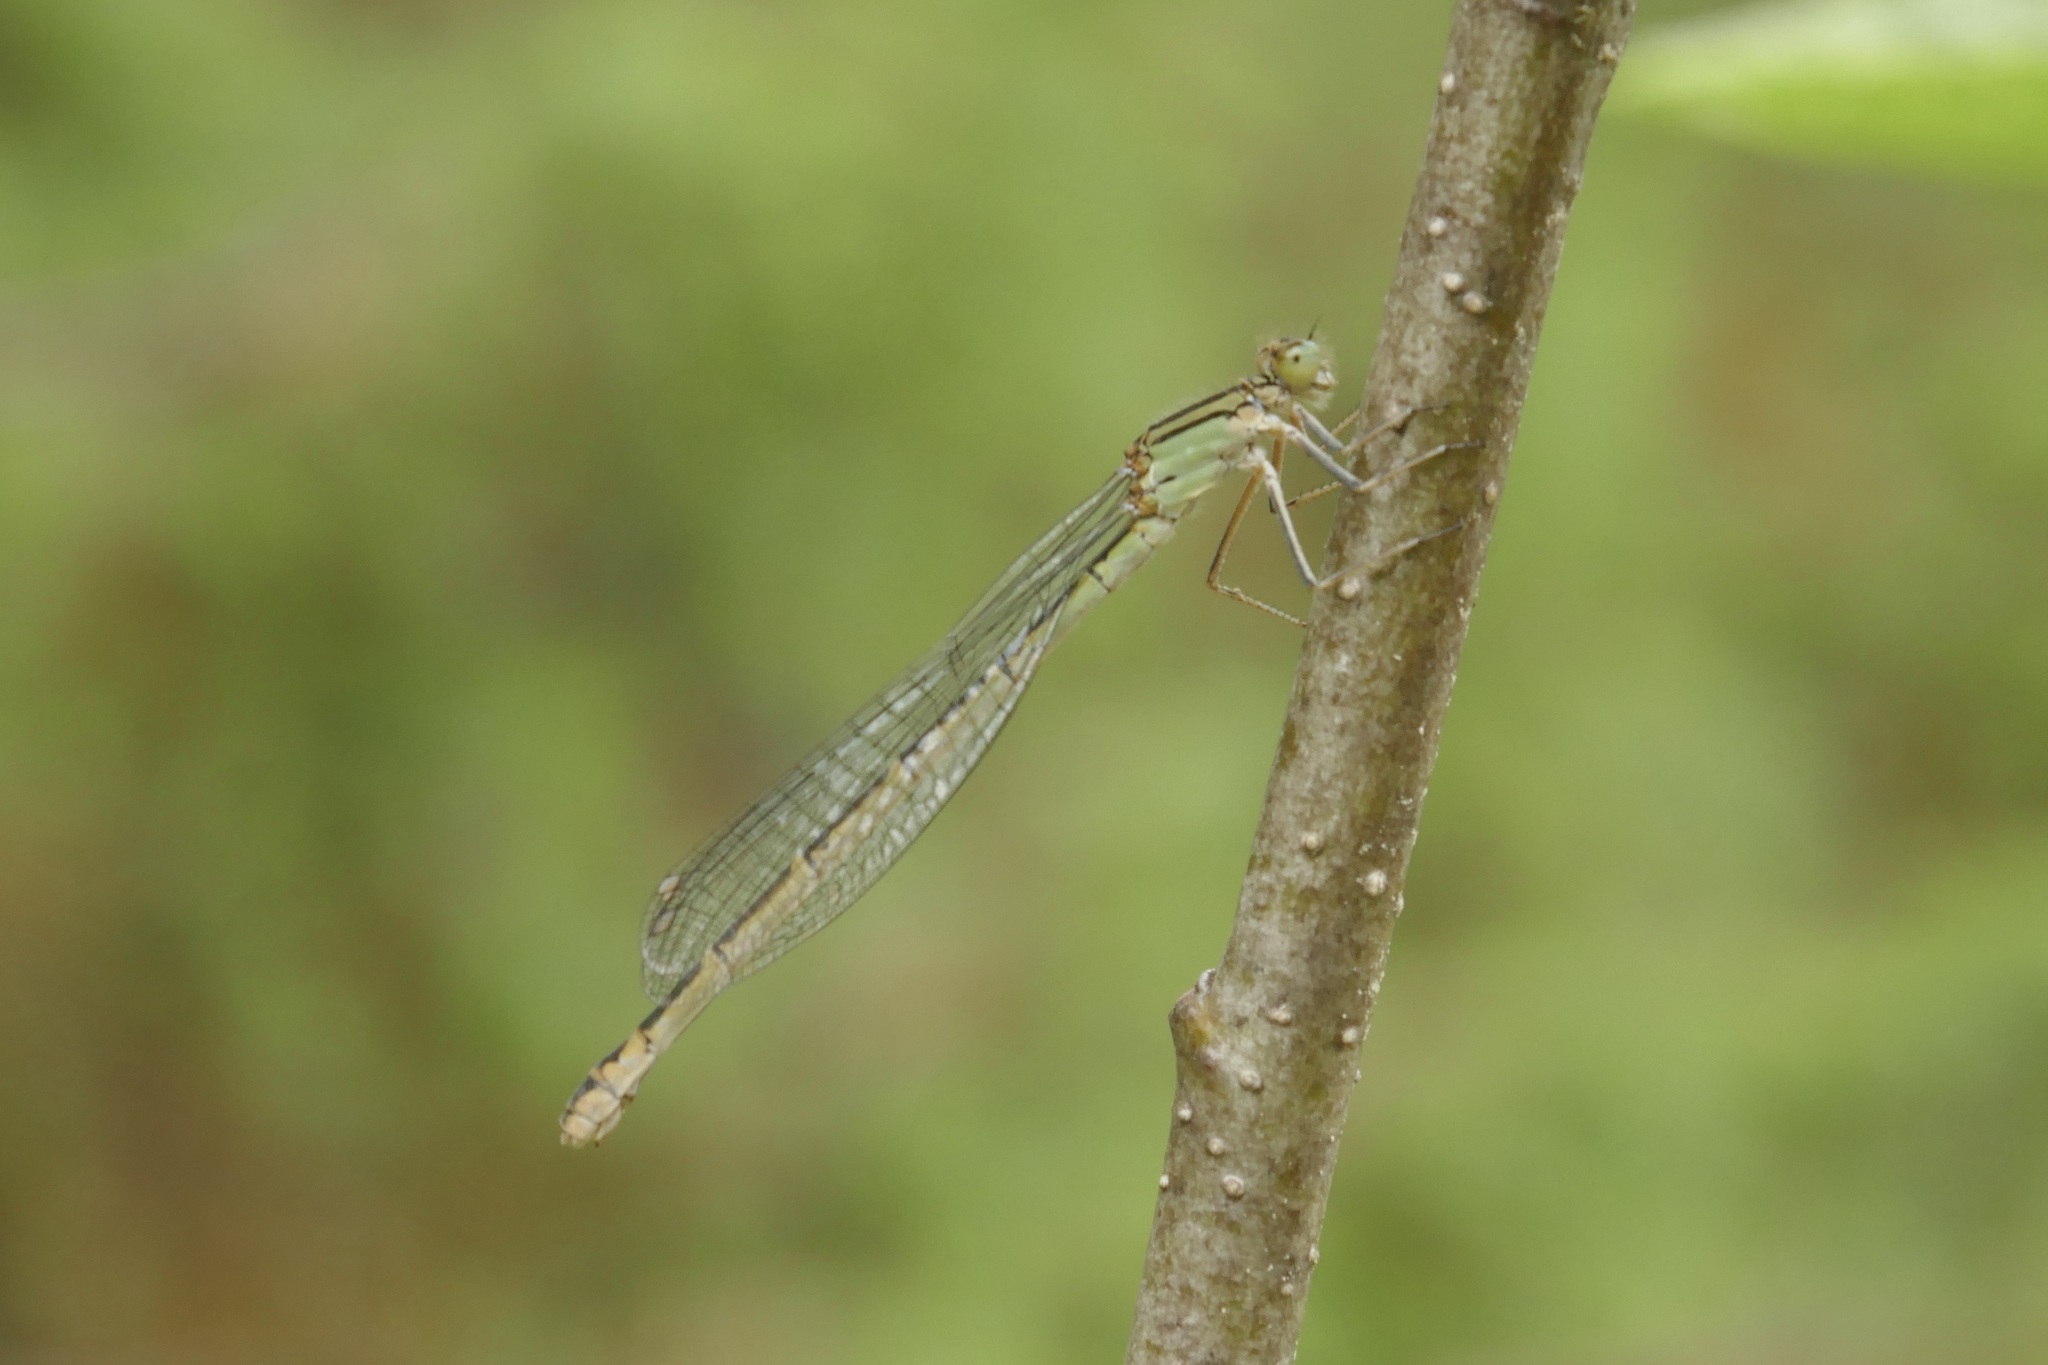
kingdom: Animalia
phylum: Arthropoda
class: Insecta
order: Odonata
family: Coenagrionidae
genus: Enallagma
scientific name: Enallagma cyathigerum
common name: Common blue damselfly
